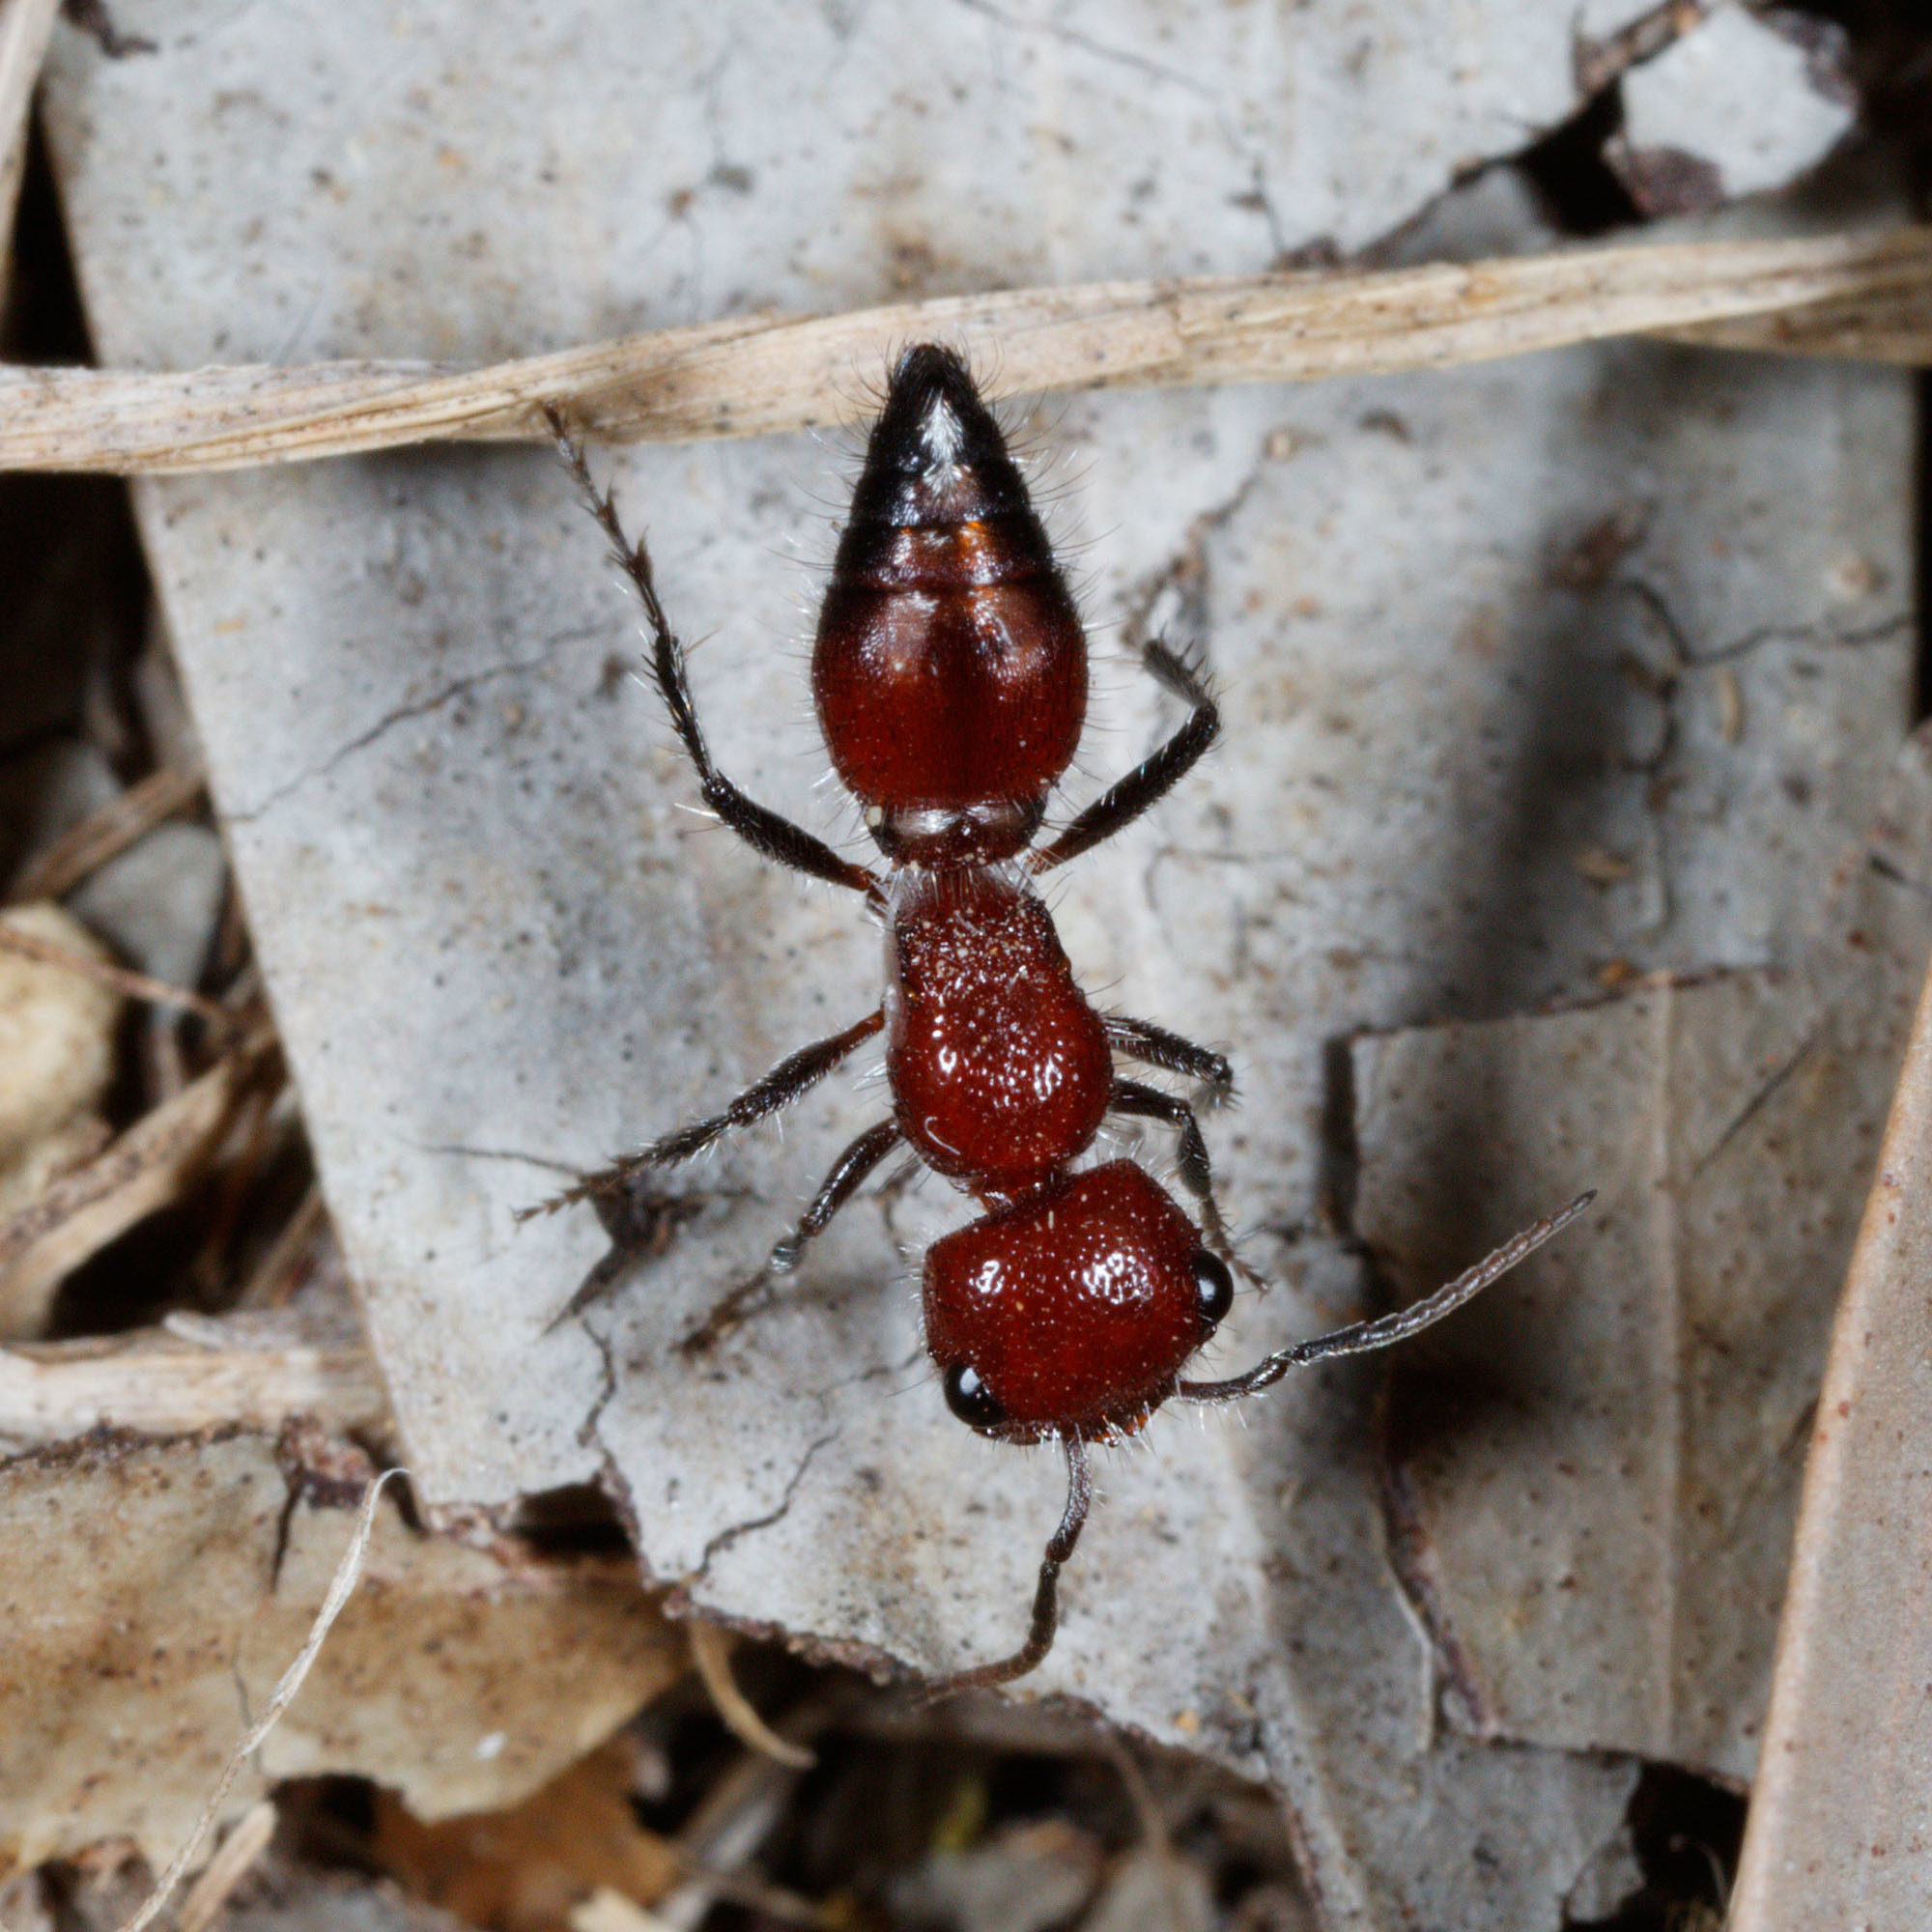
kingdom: Animalia
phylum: Arthropoda
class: Insecta
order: Hymenoptera
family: Mutillidae
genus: Ephutomorpha
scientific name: Ephutomorpha
